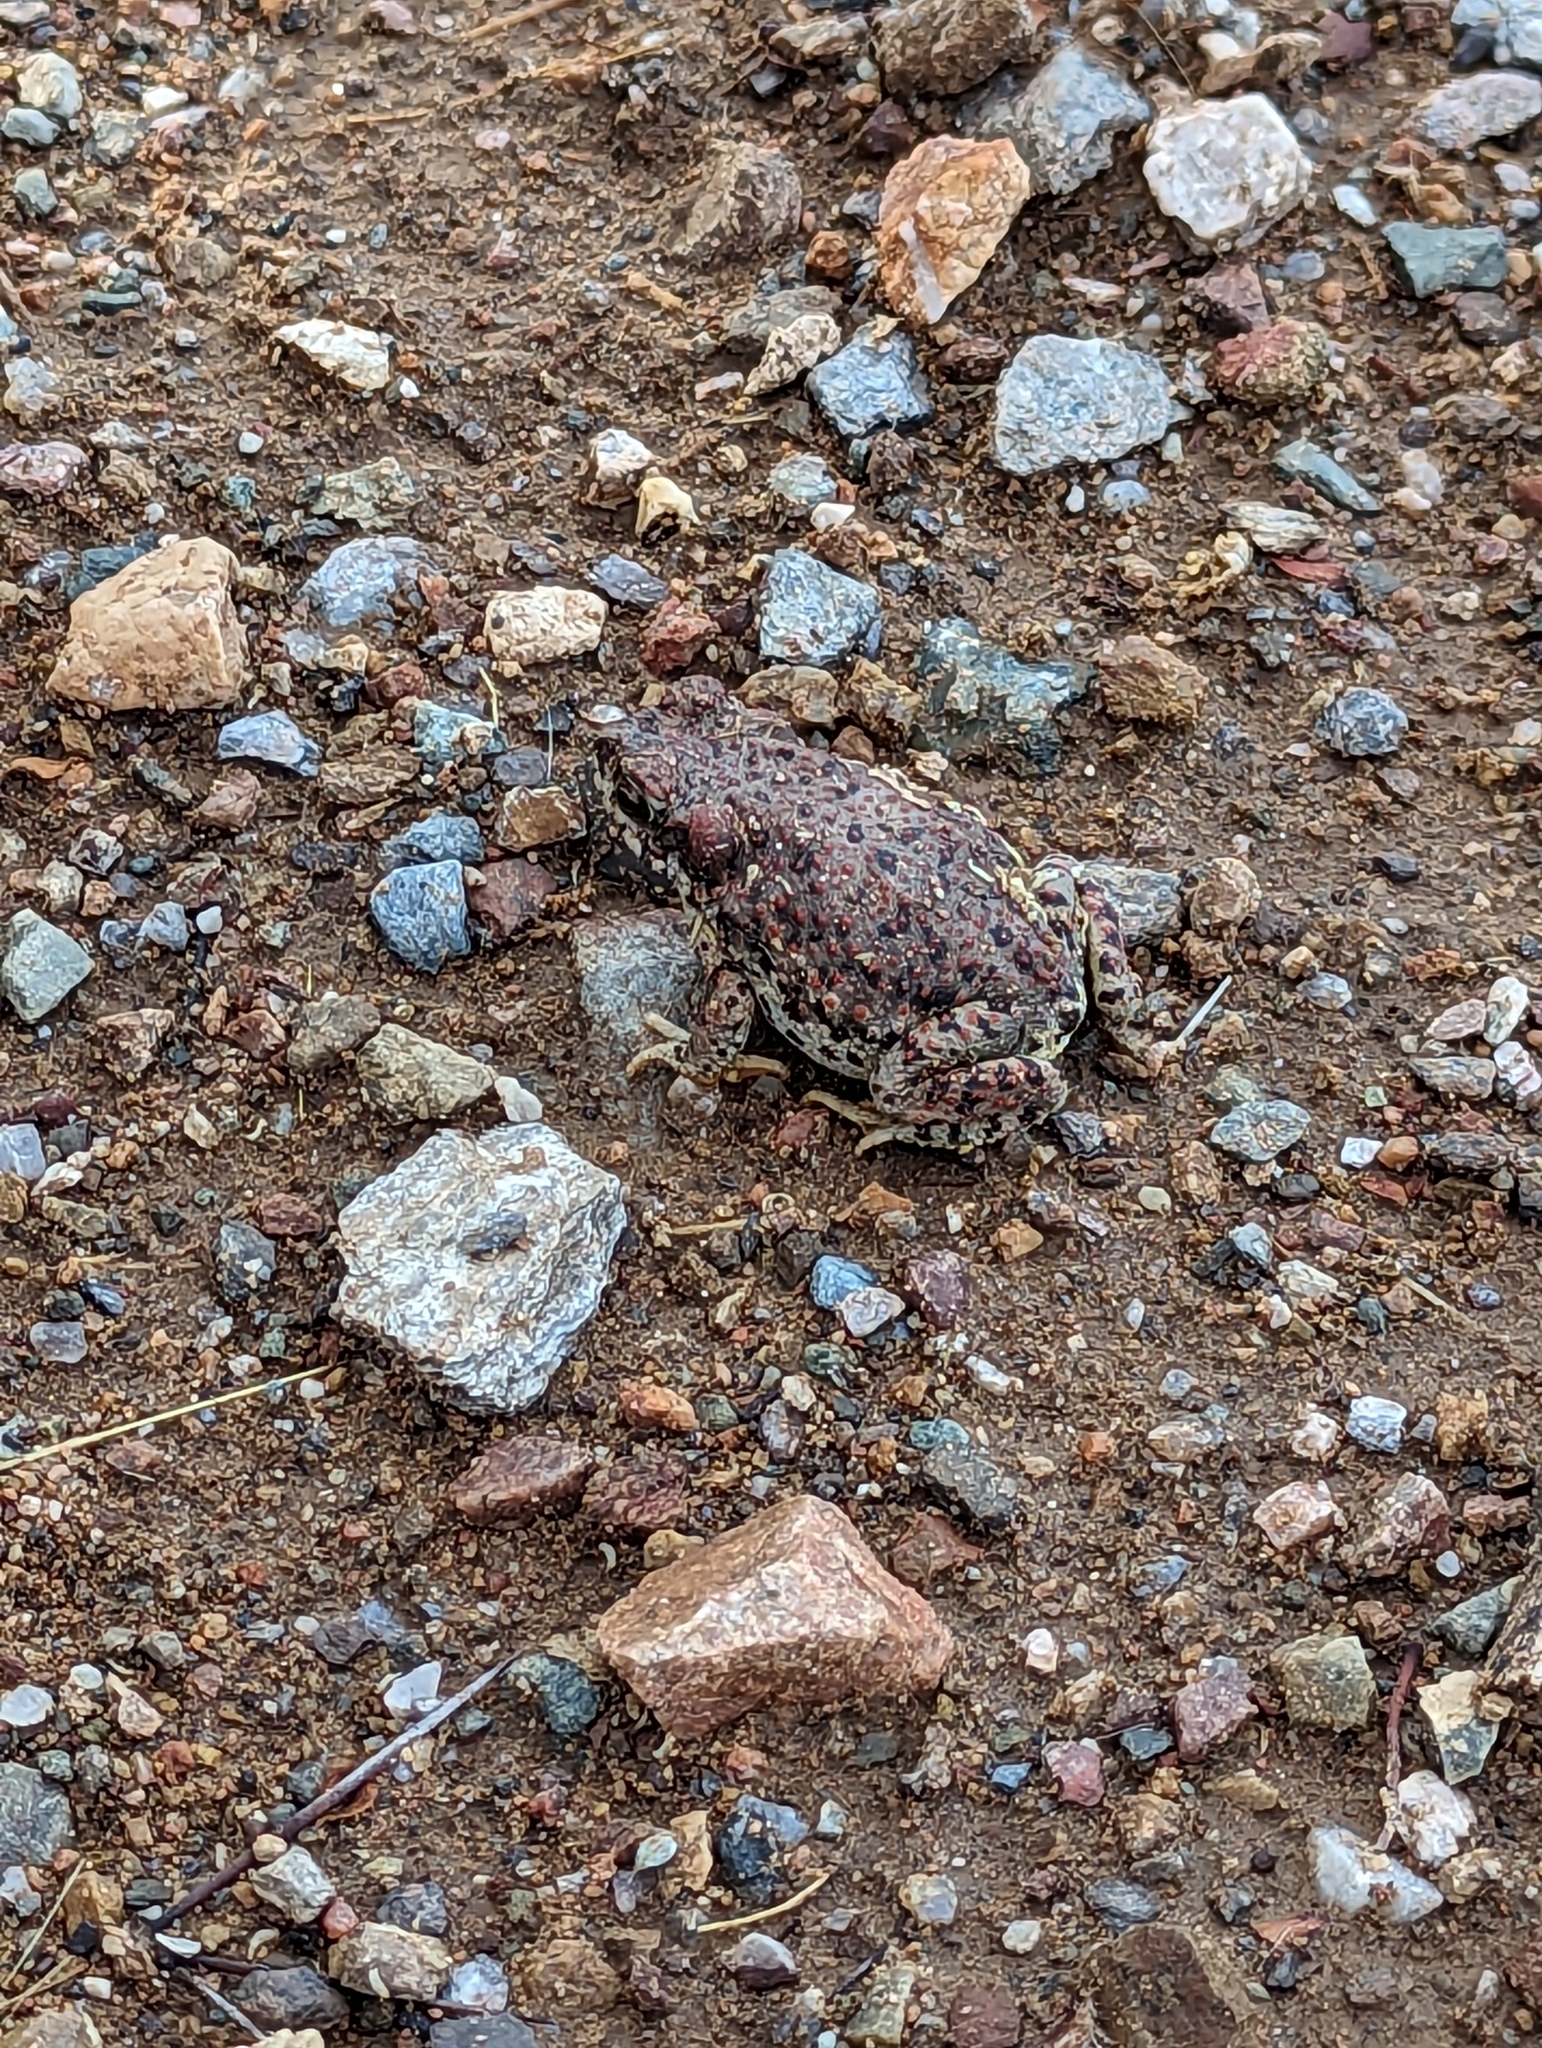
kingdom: Animalia
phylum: Chordata
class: Amphibia
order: Anura
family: Bufonidae
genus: Anaxyrus
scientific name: Anaxyrus punctatus
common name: Red-spotted toad
